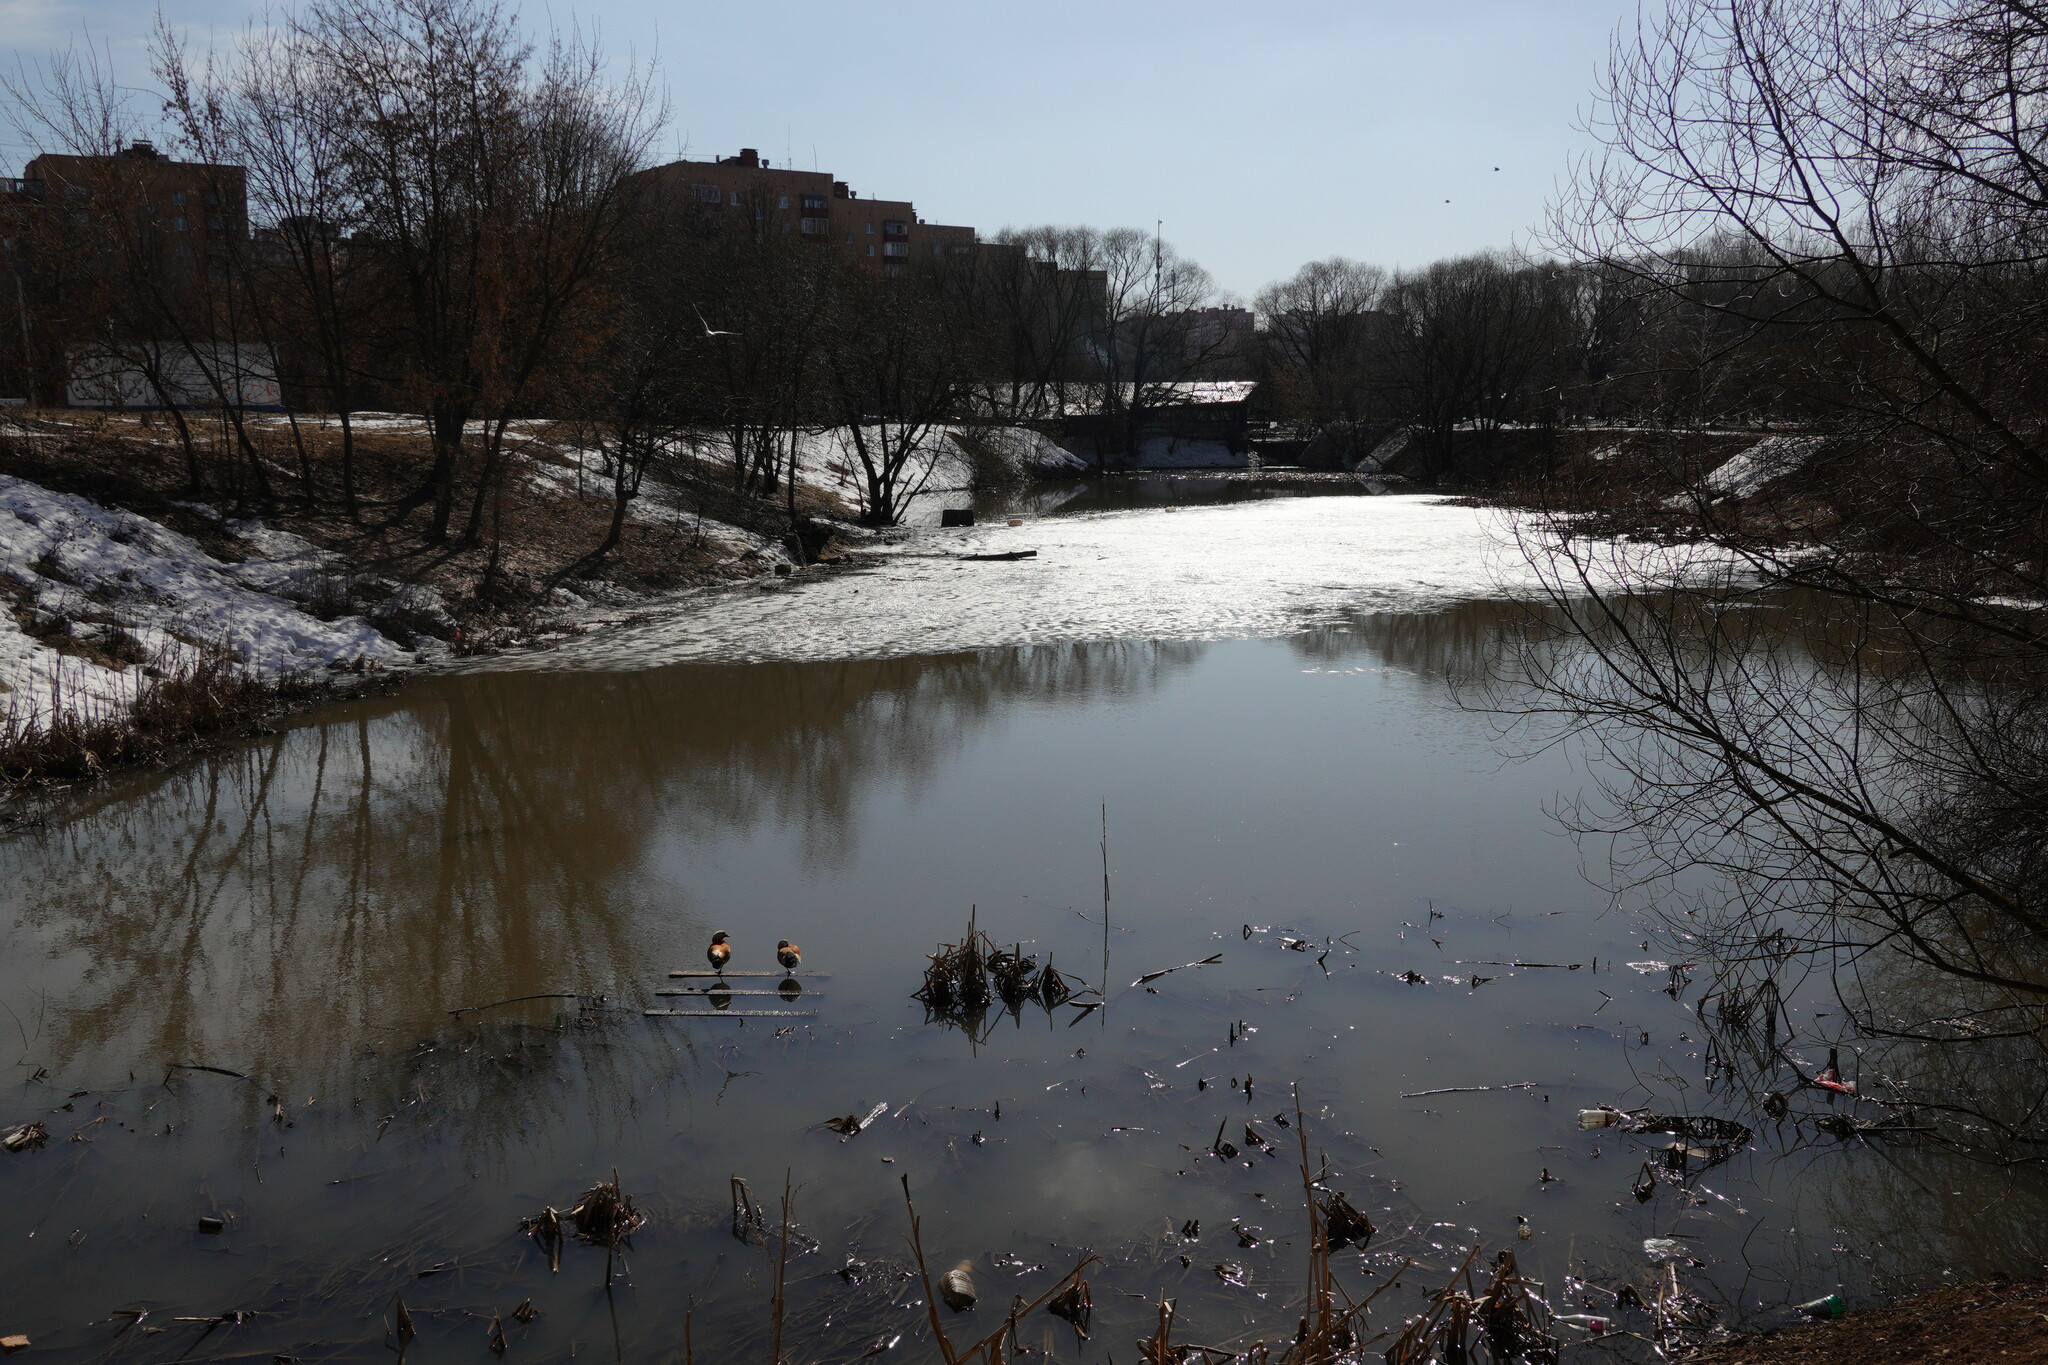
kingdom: Animalia
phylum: Chordata
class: Aves
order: Anseriformes
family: Anatidae
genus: Tadorna
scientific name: Tadorna ferruginea
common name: Ruddy shelduck
